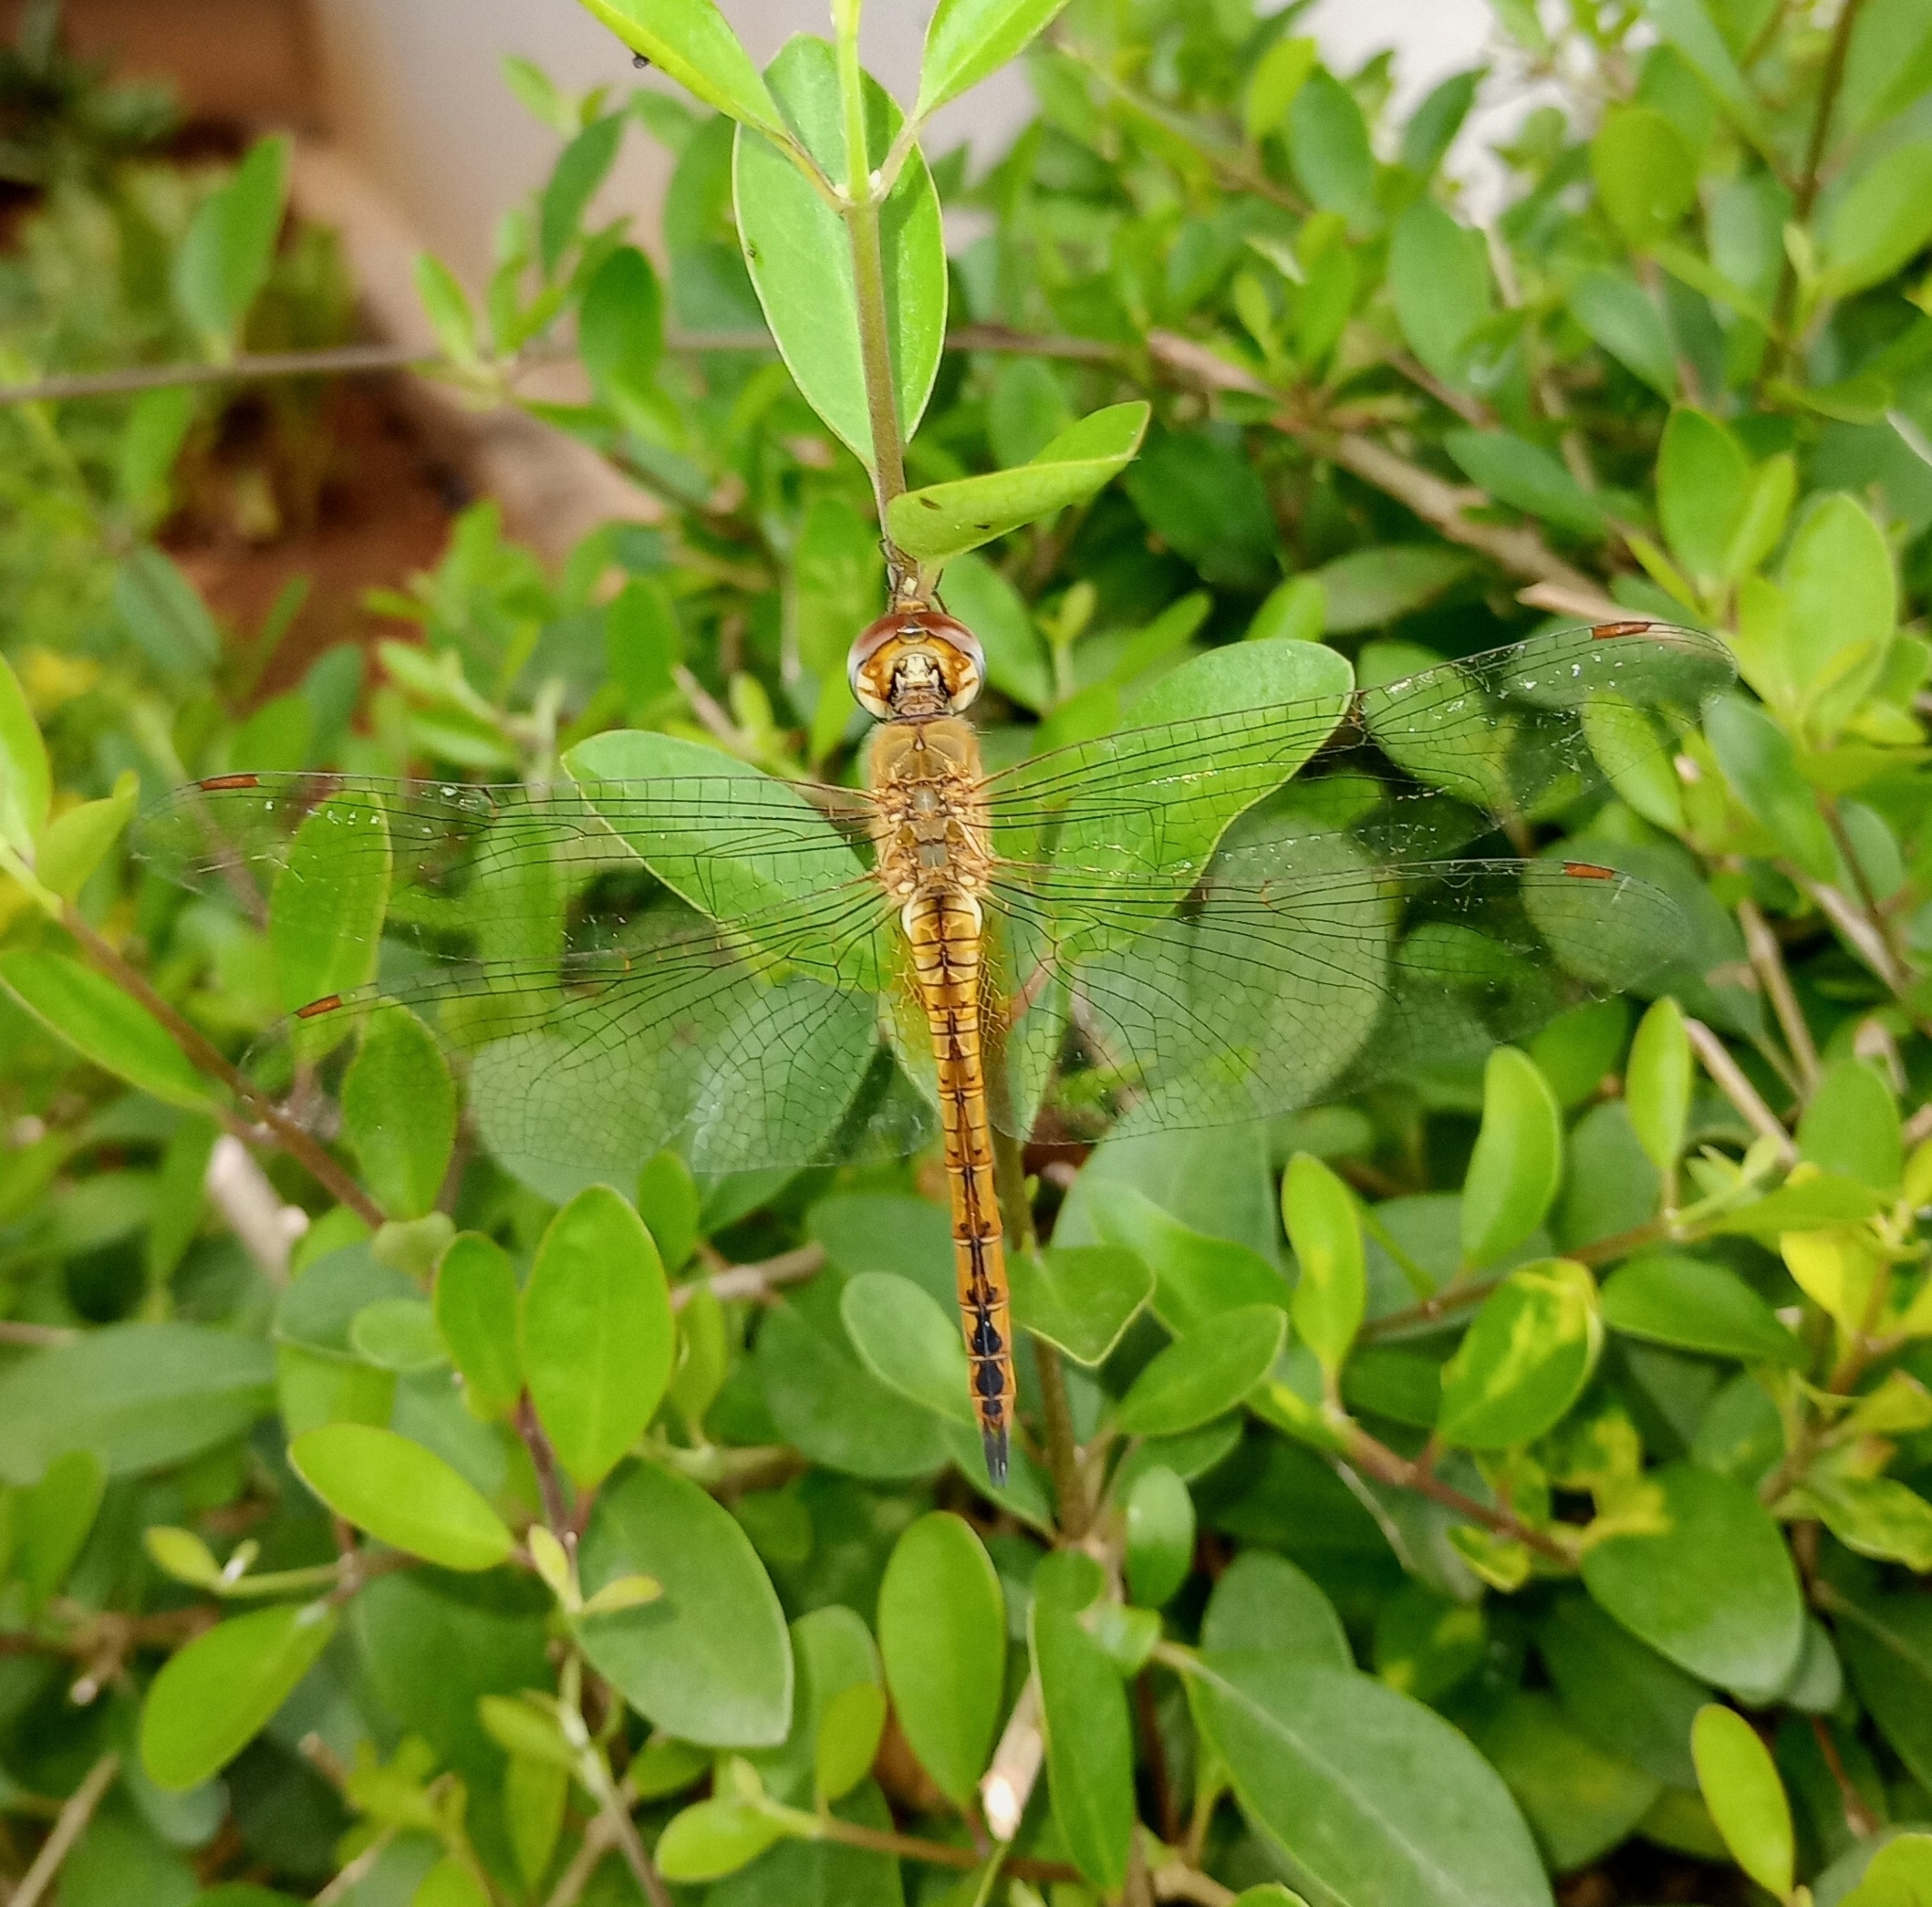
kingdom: Animalia
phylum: Arthropoda
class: Insecta
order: Odonata
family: Libellulidae
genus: Pantala
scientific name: Pantala flavescens
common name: Wandering glider
